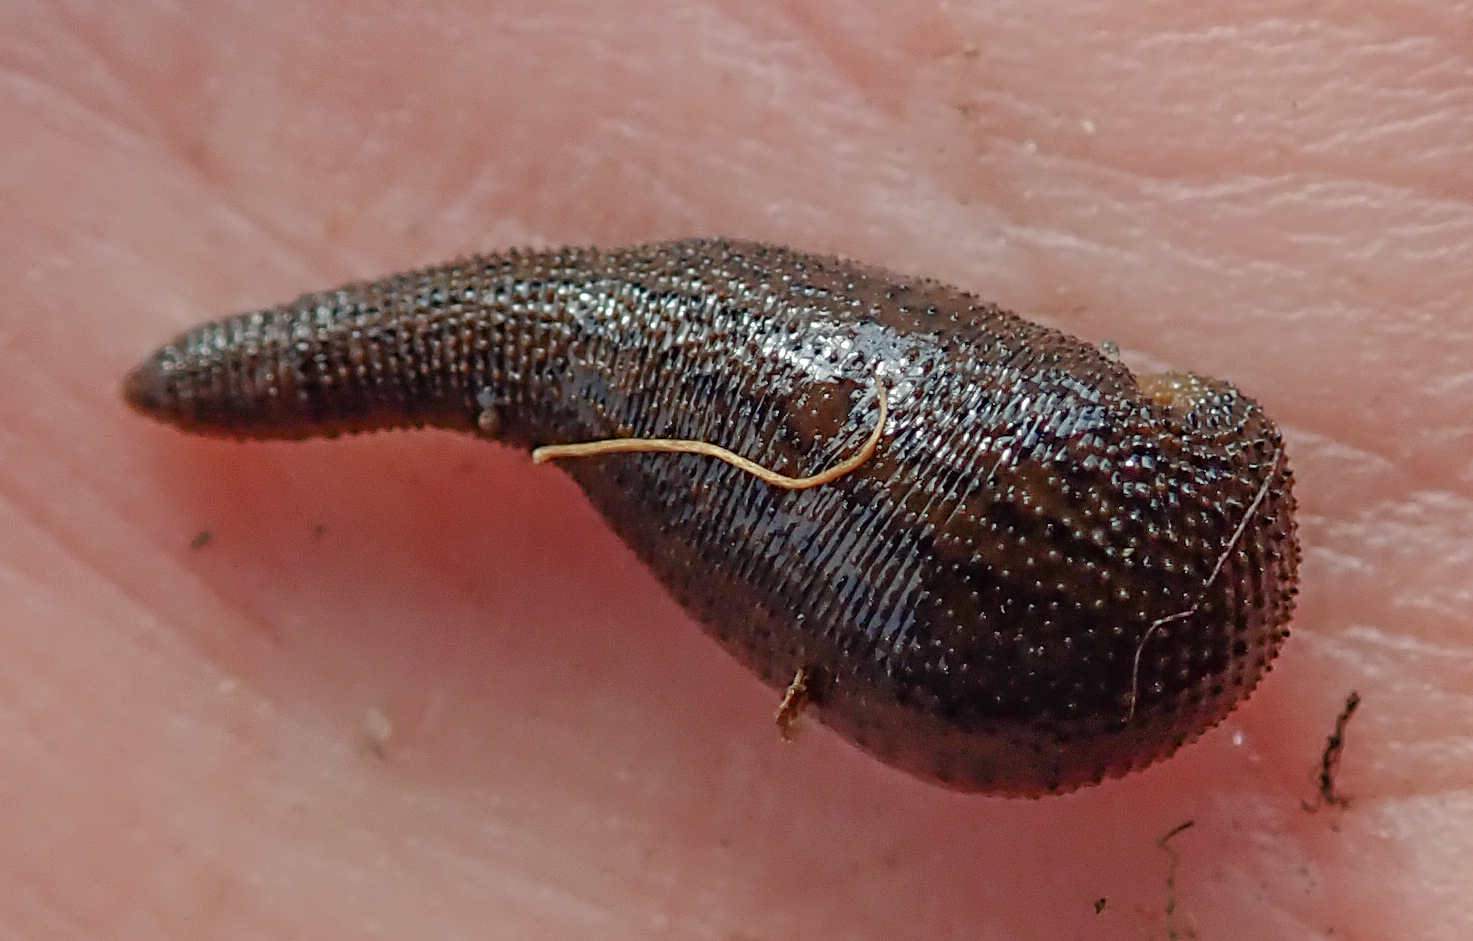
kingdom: Animalia
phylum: Annelida
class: Clitellata
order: Arhynchobdellida
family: Hirudinidae
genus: Asiaticobdella
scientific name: Asiaticobdella fenestrata
